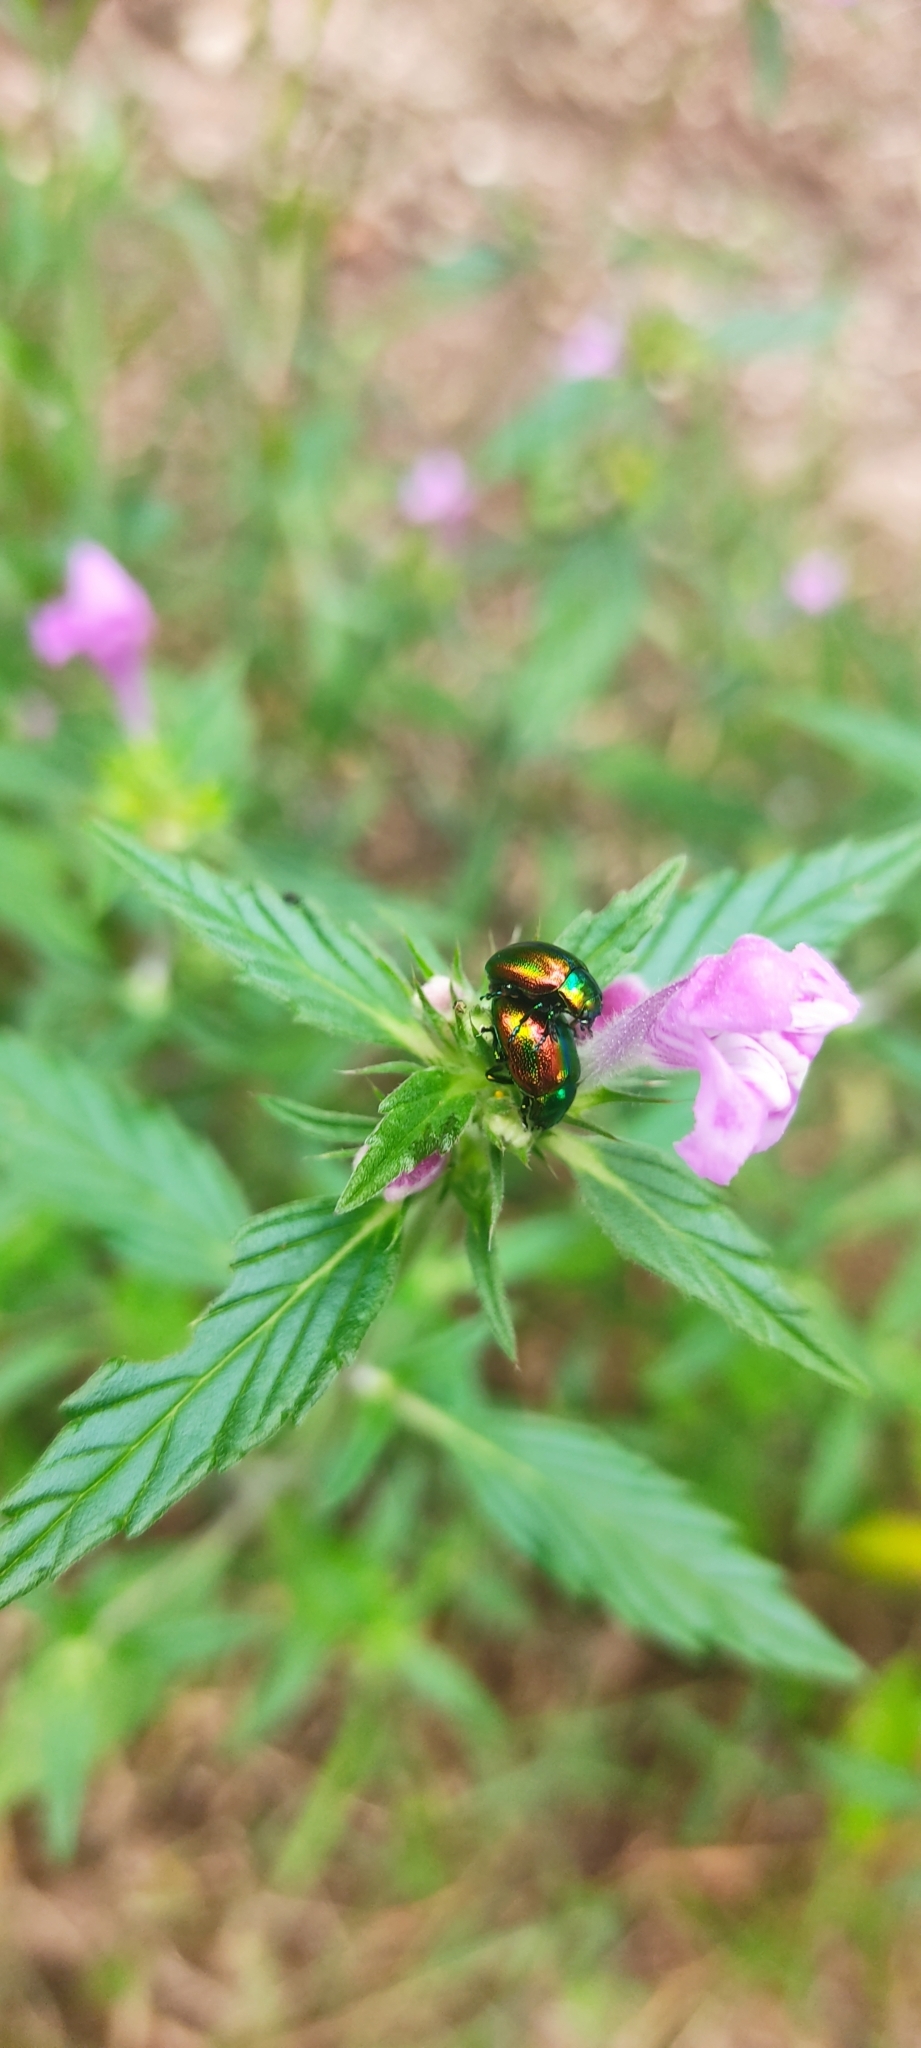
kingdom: Animalia
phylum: Arthropoda
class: Insecta
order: Coleoptera
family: Chrysomelidae
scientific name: Chrysomelidae
